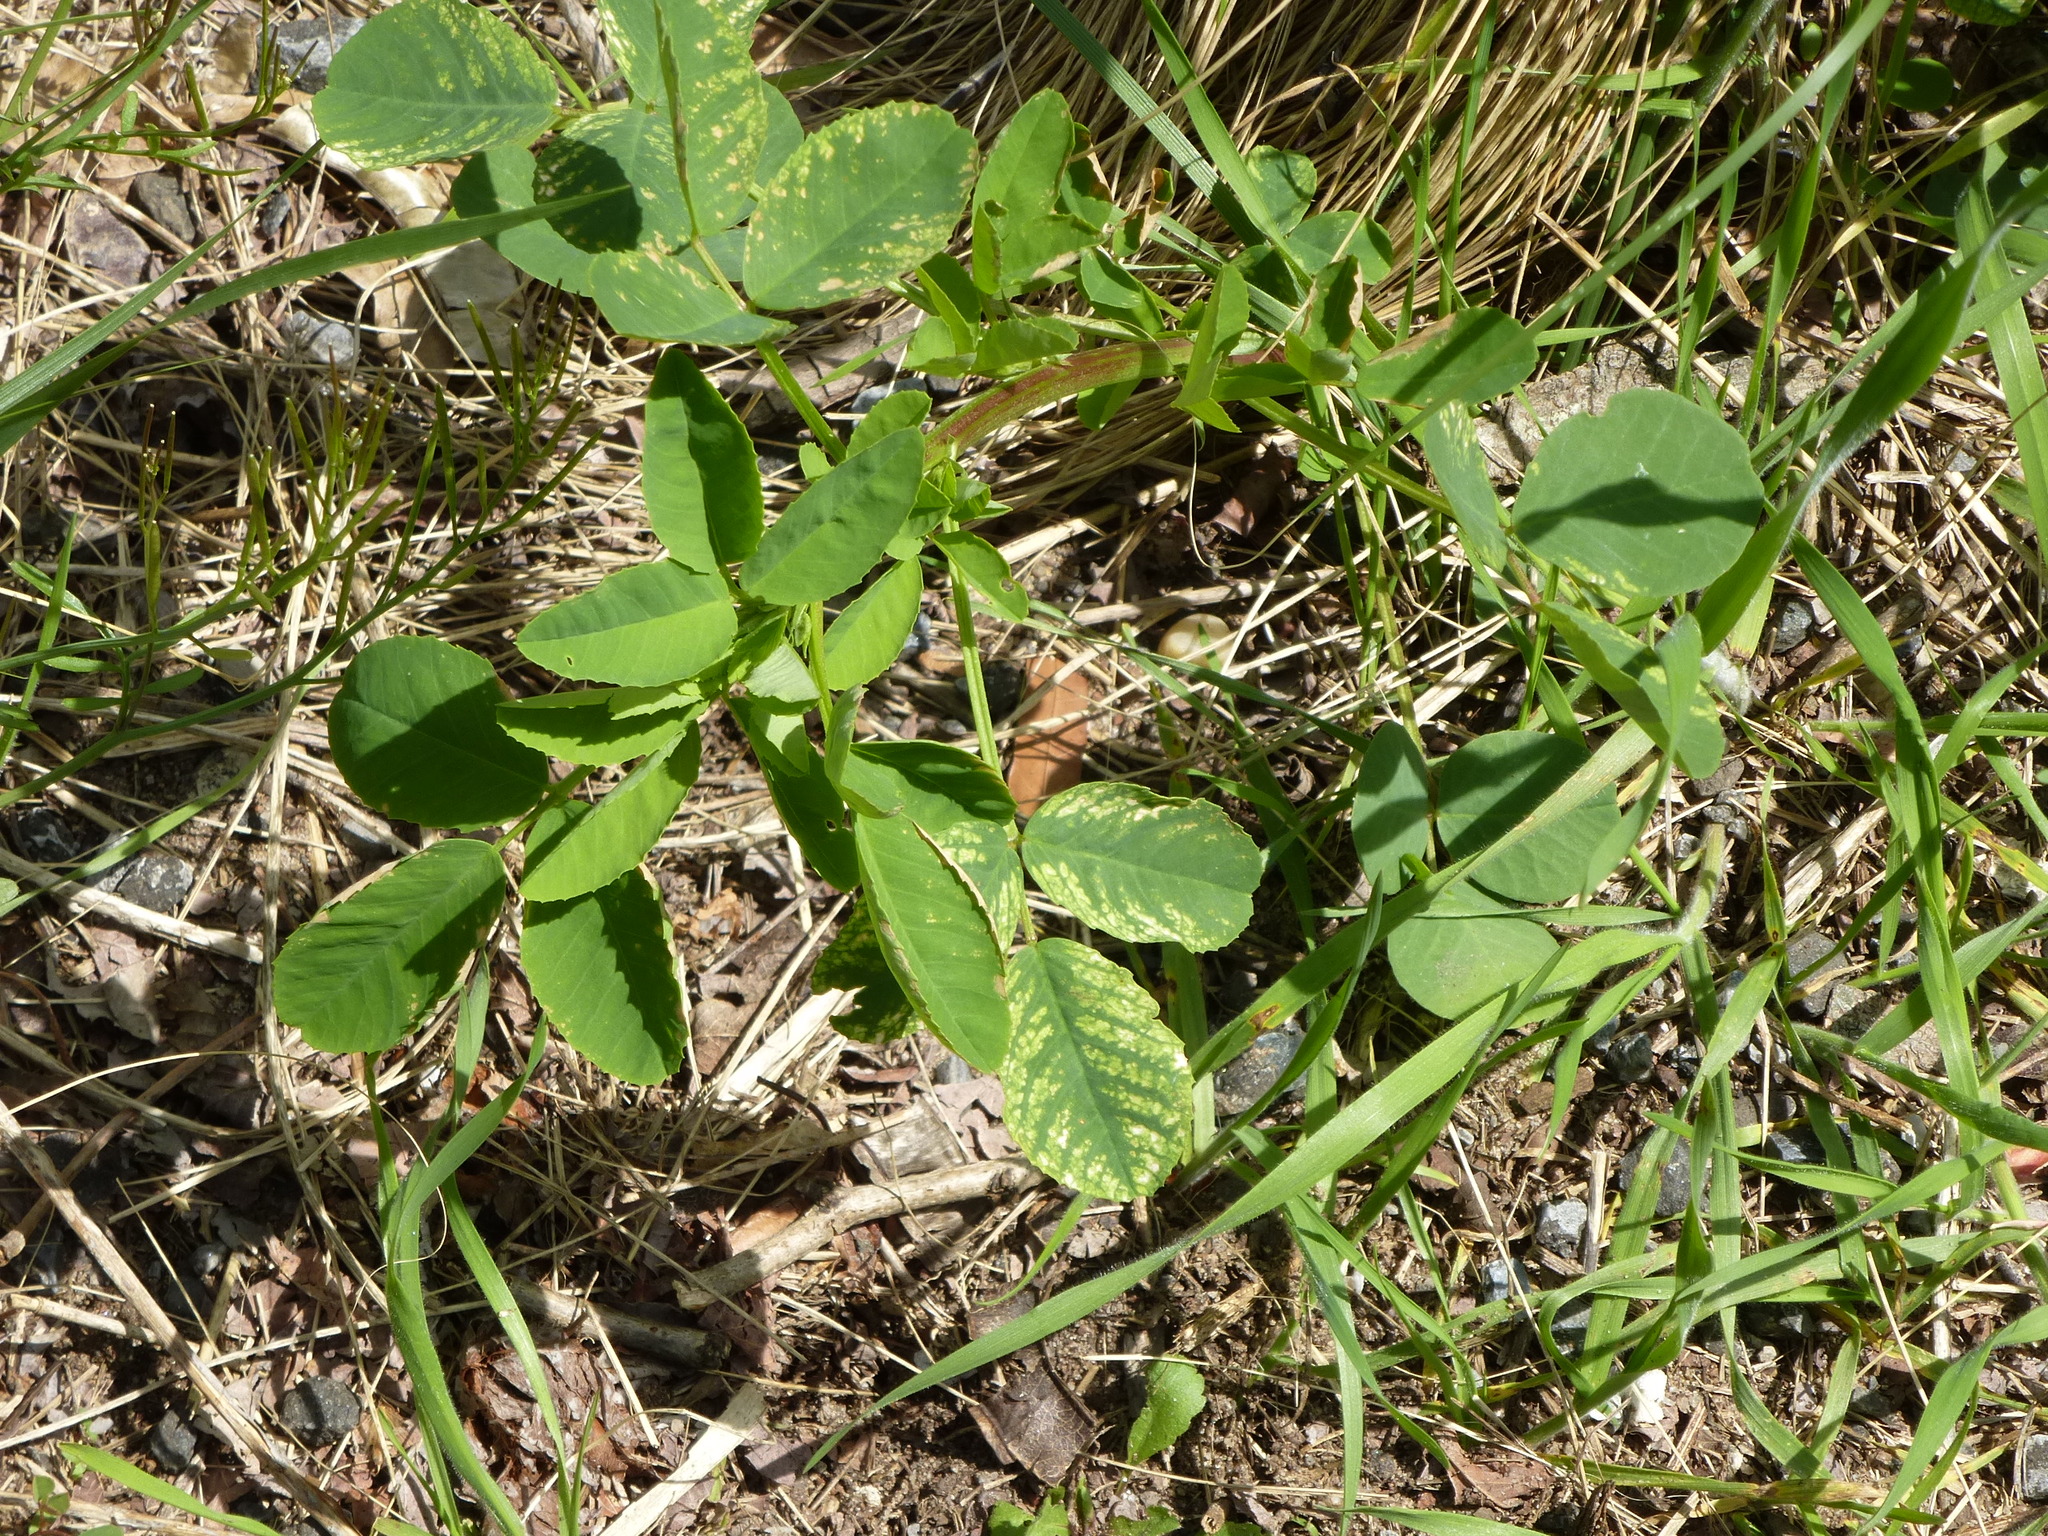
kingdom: Plantae
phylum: Tracheophyta
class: Magnoliopsida
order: Fabales
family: Fabaceae
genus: Melilotus
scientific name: Melilotus officinalis
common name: Sweetclover
